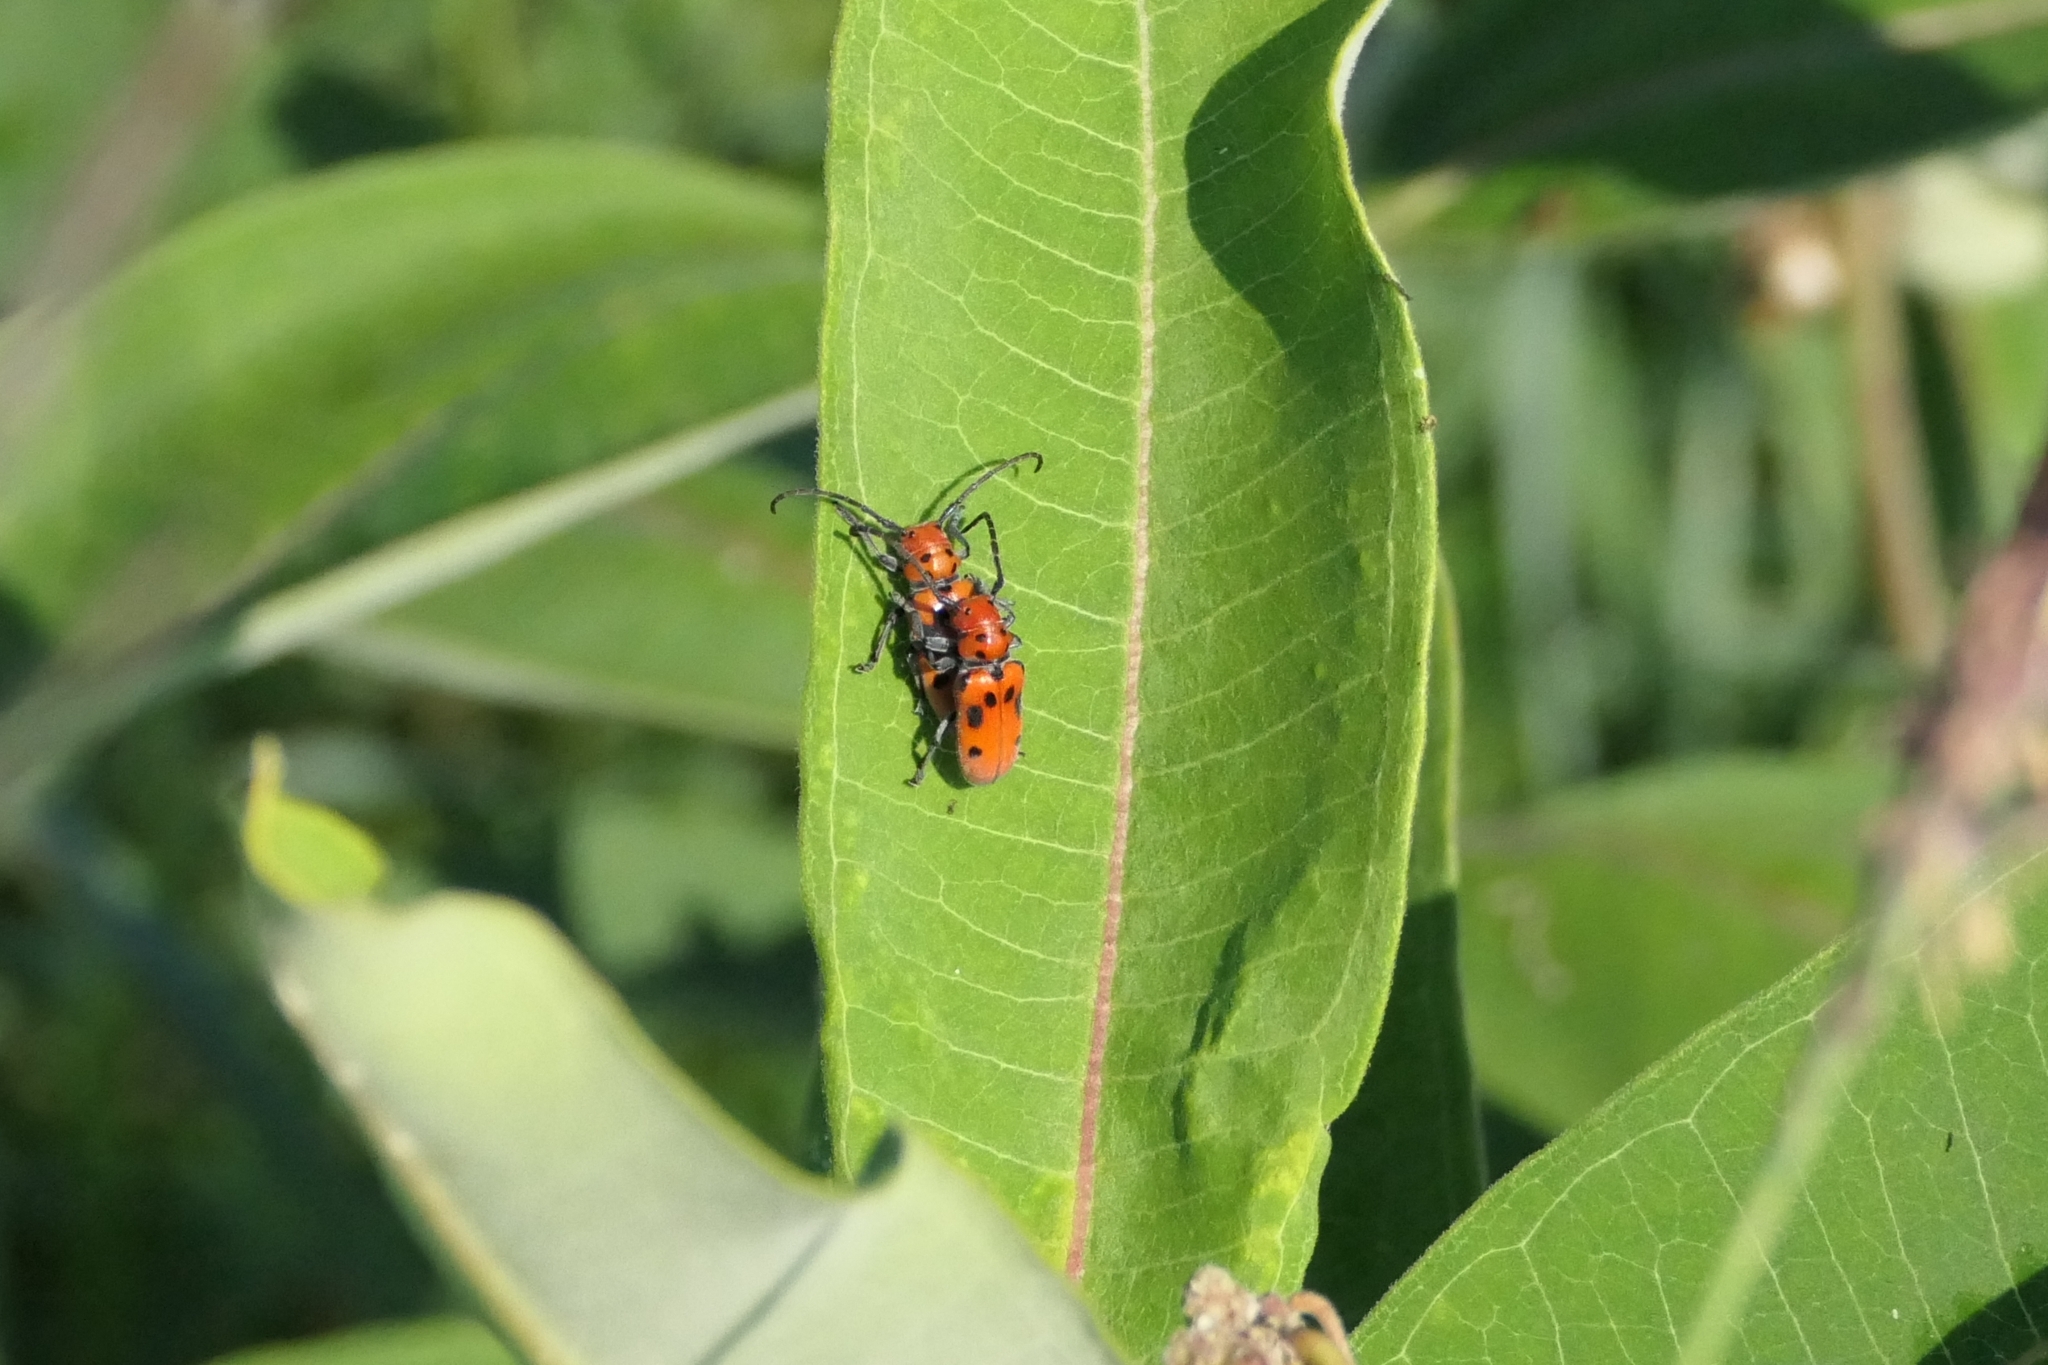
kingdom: Animalia
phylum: Arthropoda
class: Insecta
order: Coleoptera
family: Cerambycidae
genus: Tetraopes
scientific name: Tetraopes tetrophthalmus
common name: Red milkweed beetle
